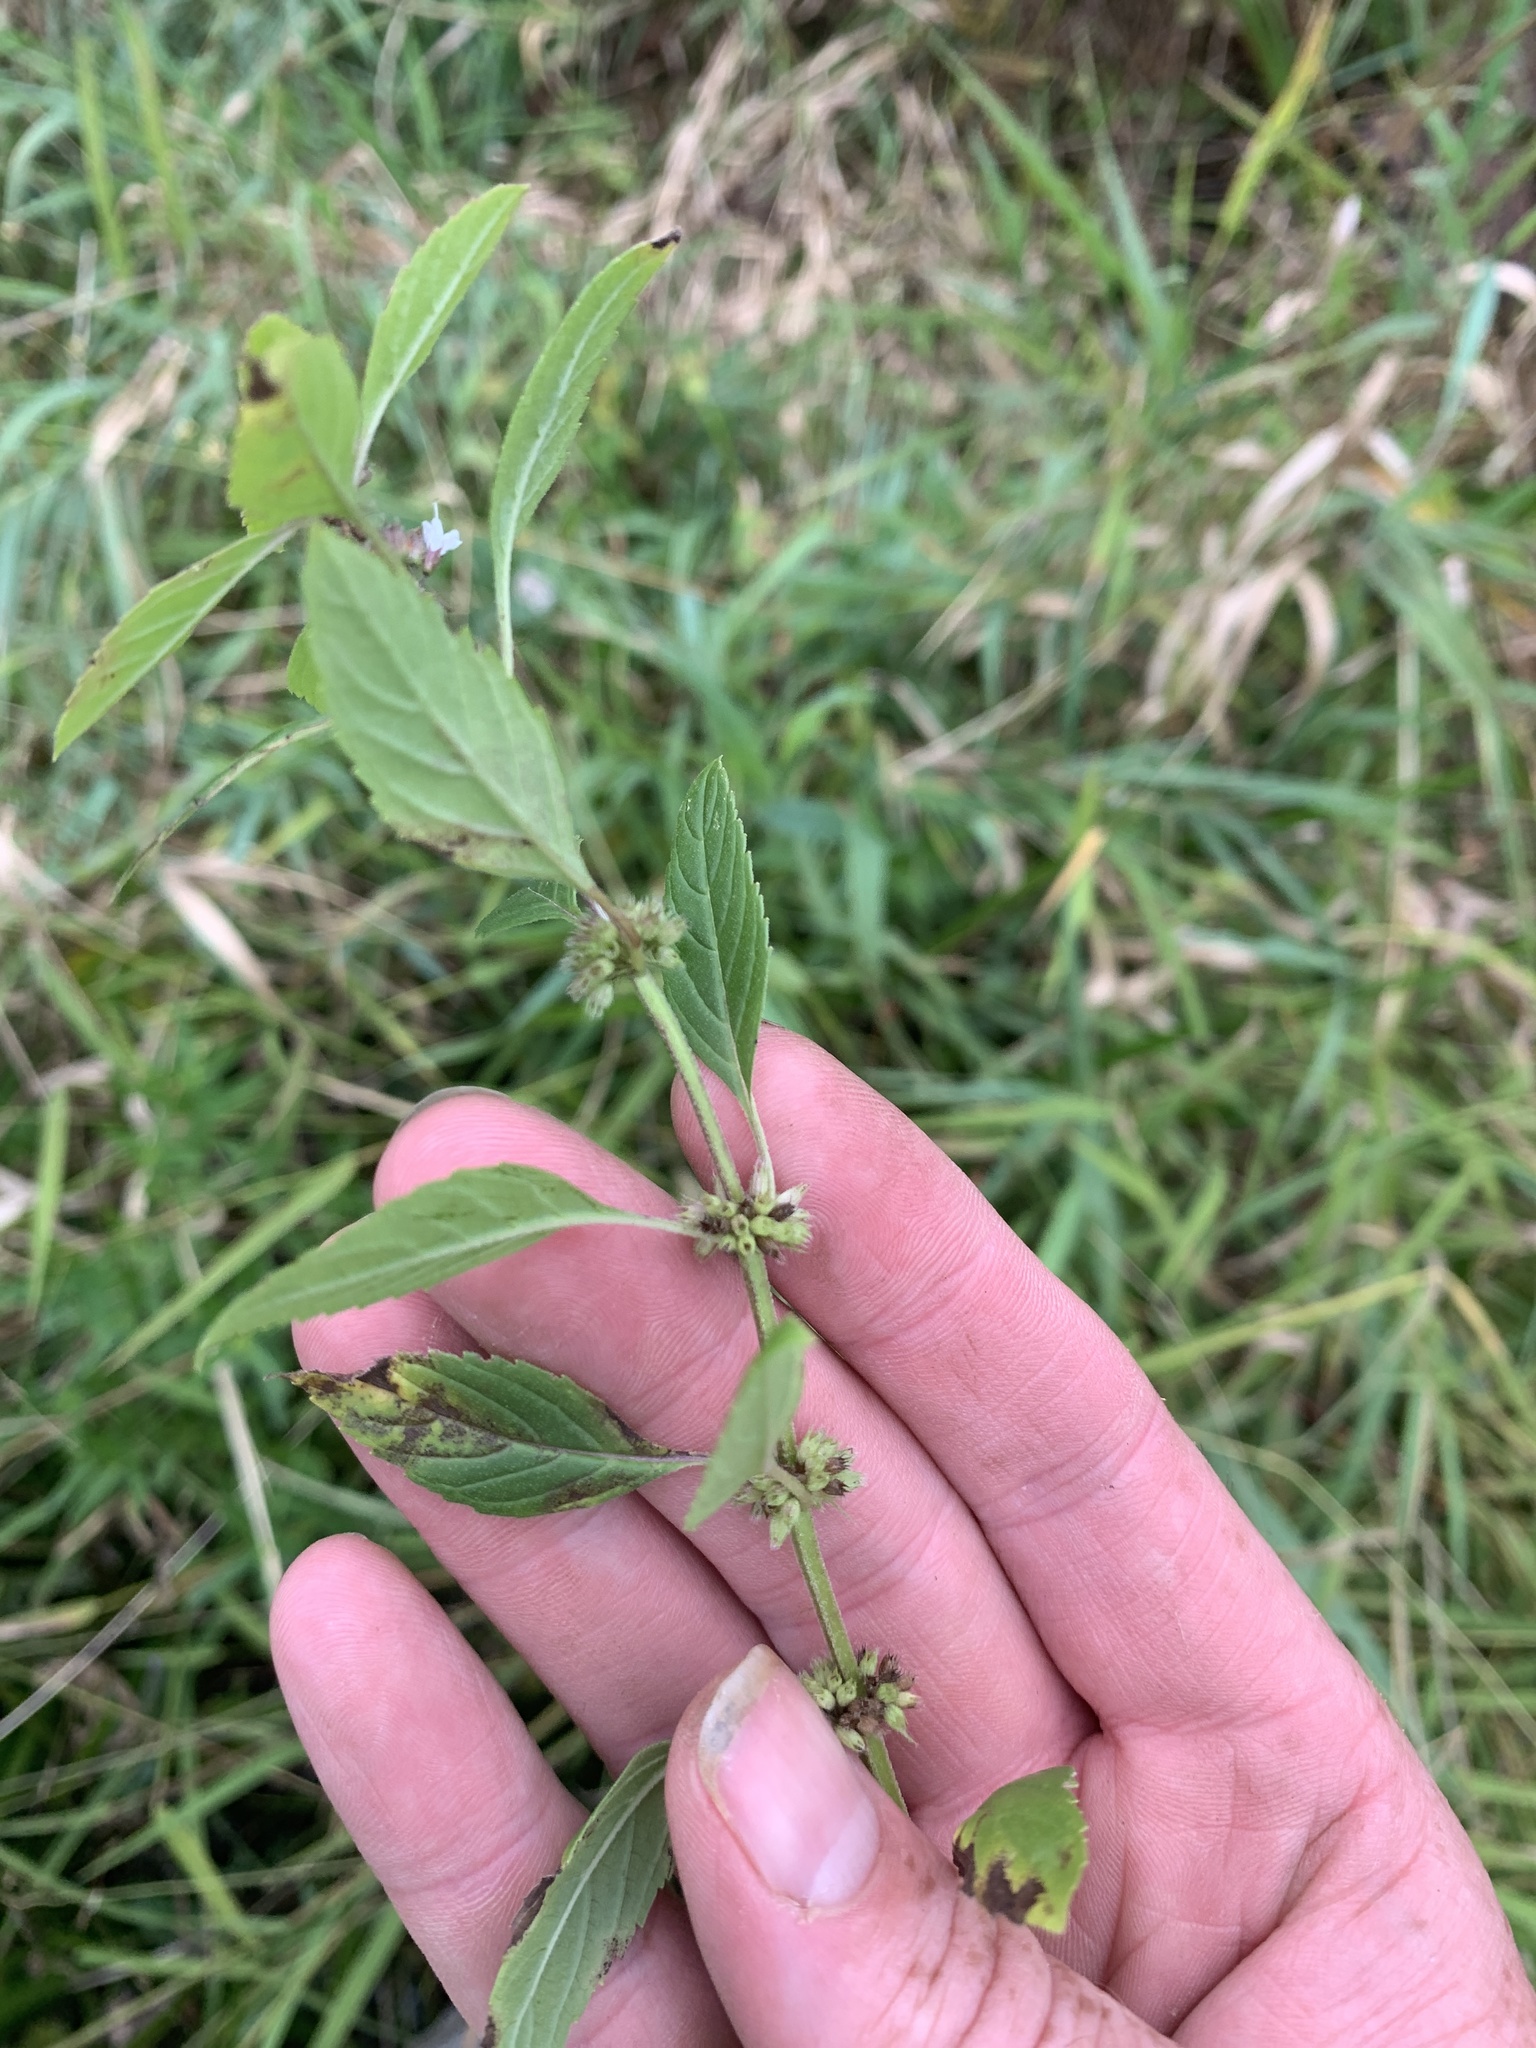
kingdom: Plantae
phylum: Tracheophyta
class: Magnoliopsida
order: Lamiales
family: Lamiaceae
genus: Mentha
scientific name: Mentha canadensis
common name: American corn mint
